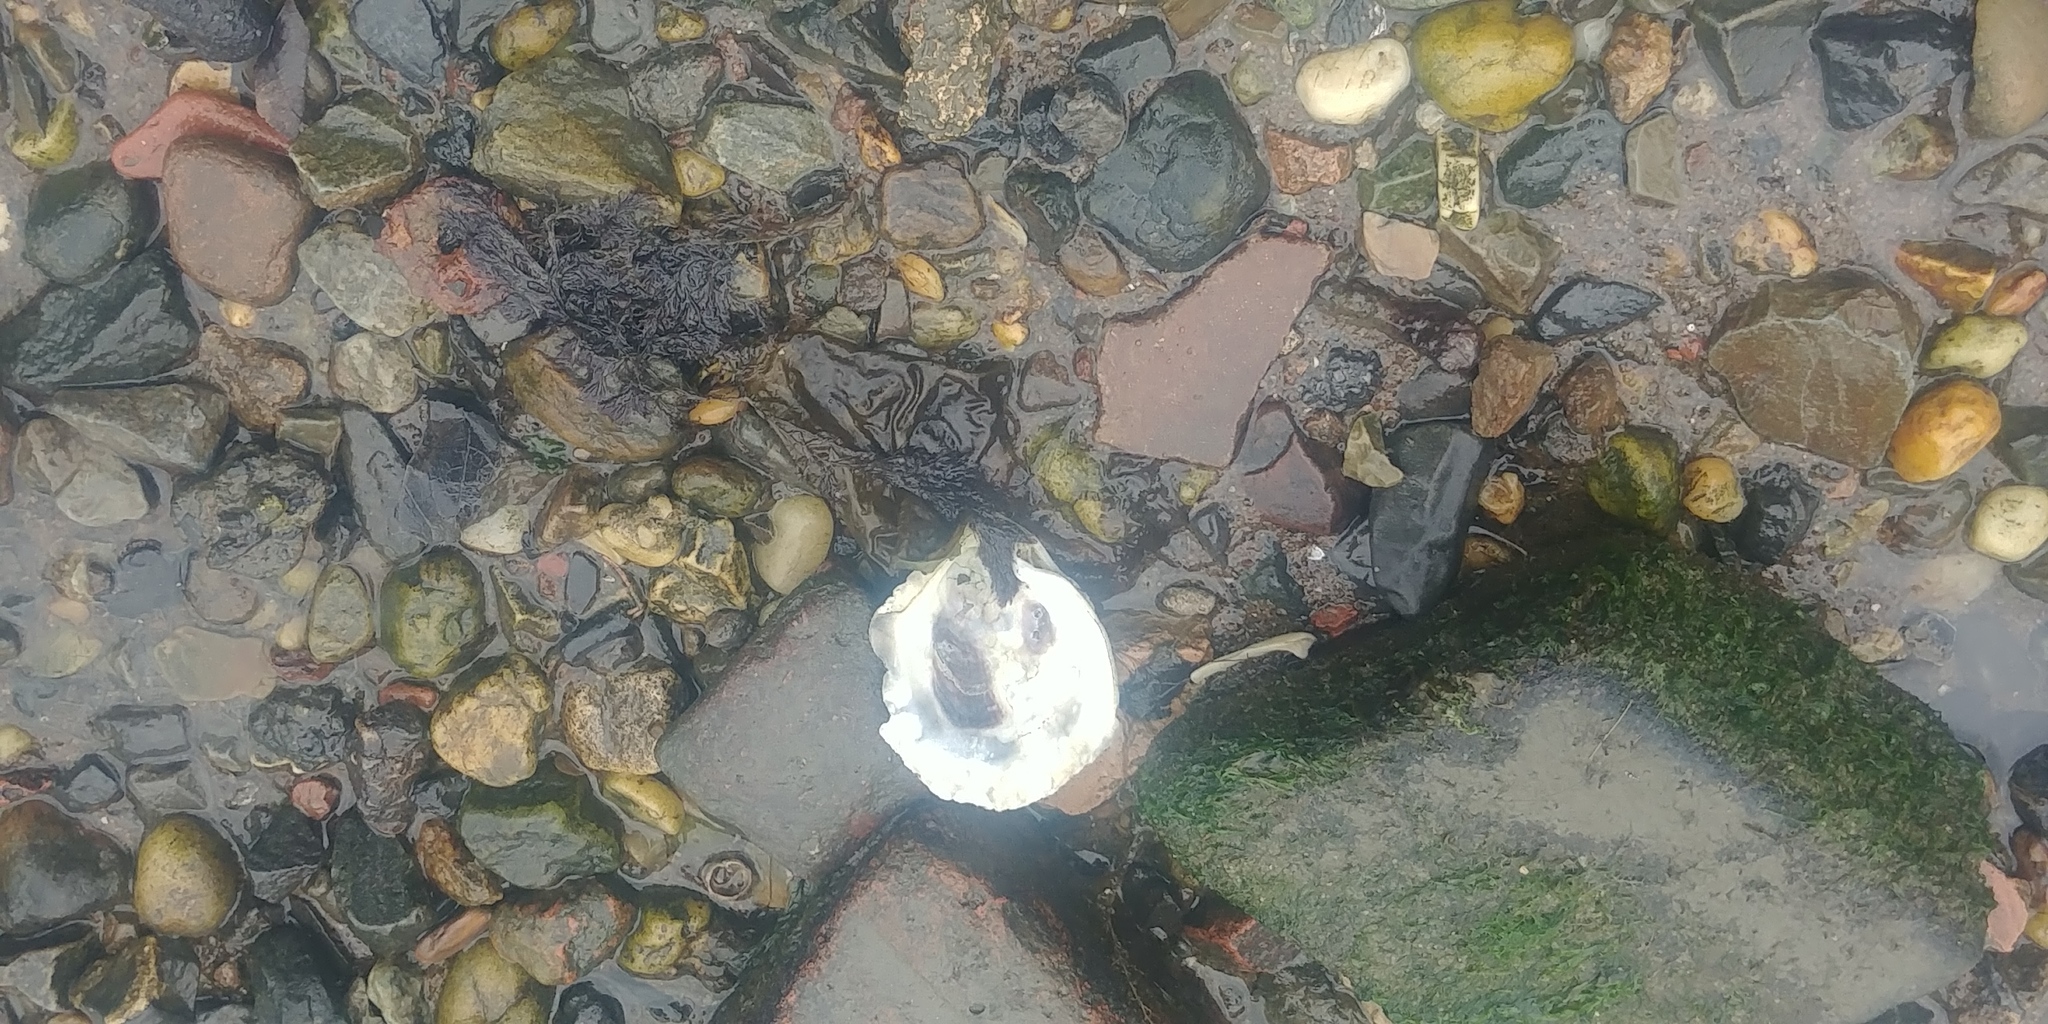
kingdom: Animalia
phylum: Mollusca
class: Bivalvia
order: Ostreida
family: Ostreidae
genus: Crassostrea
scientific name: Crassostrea virginica
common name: American oyster
